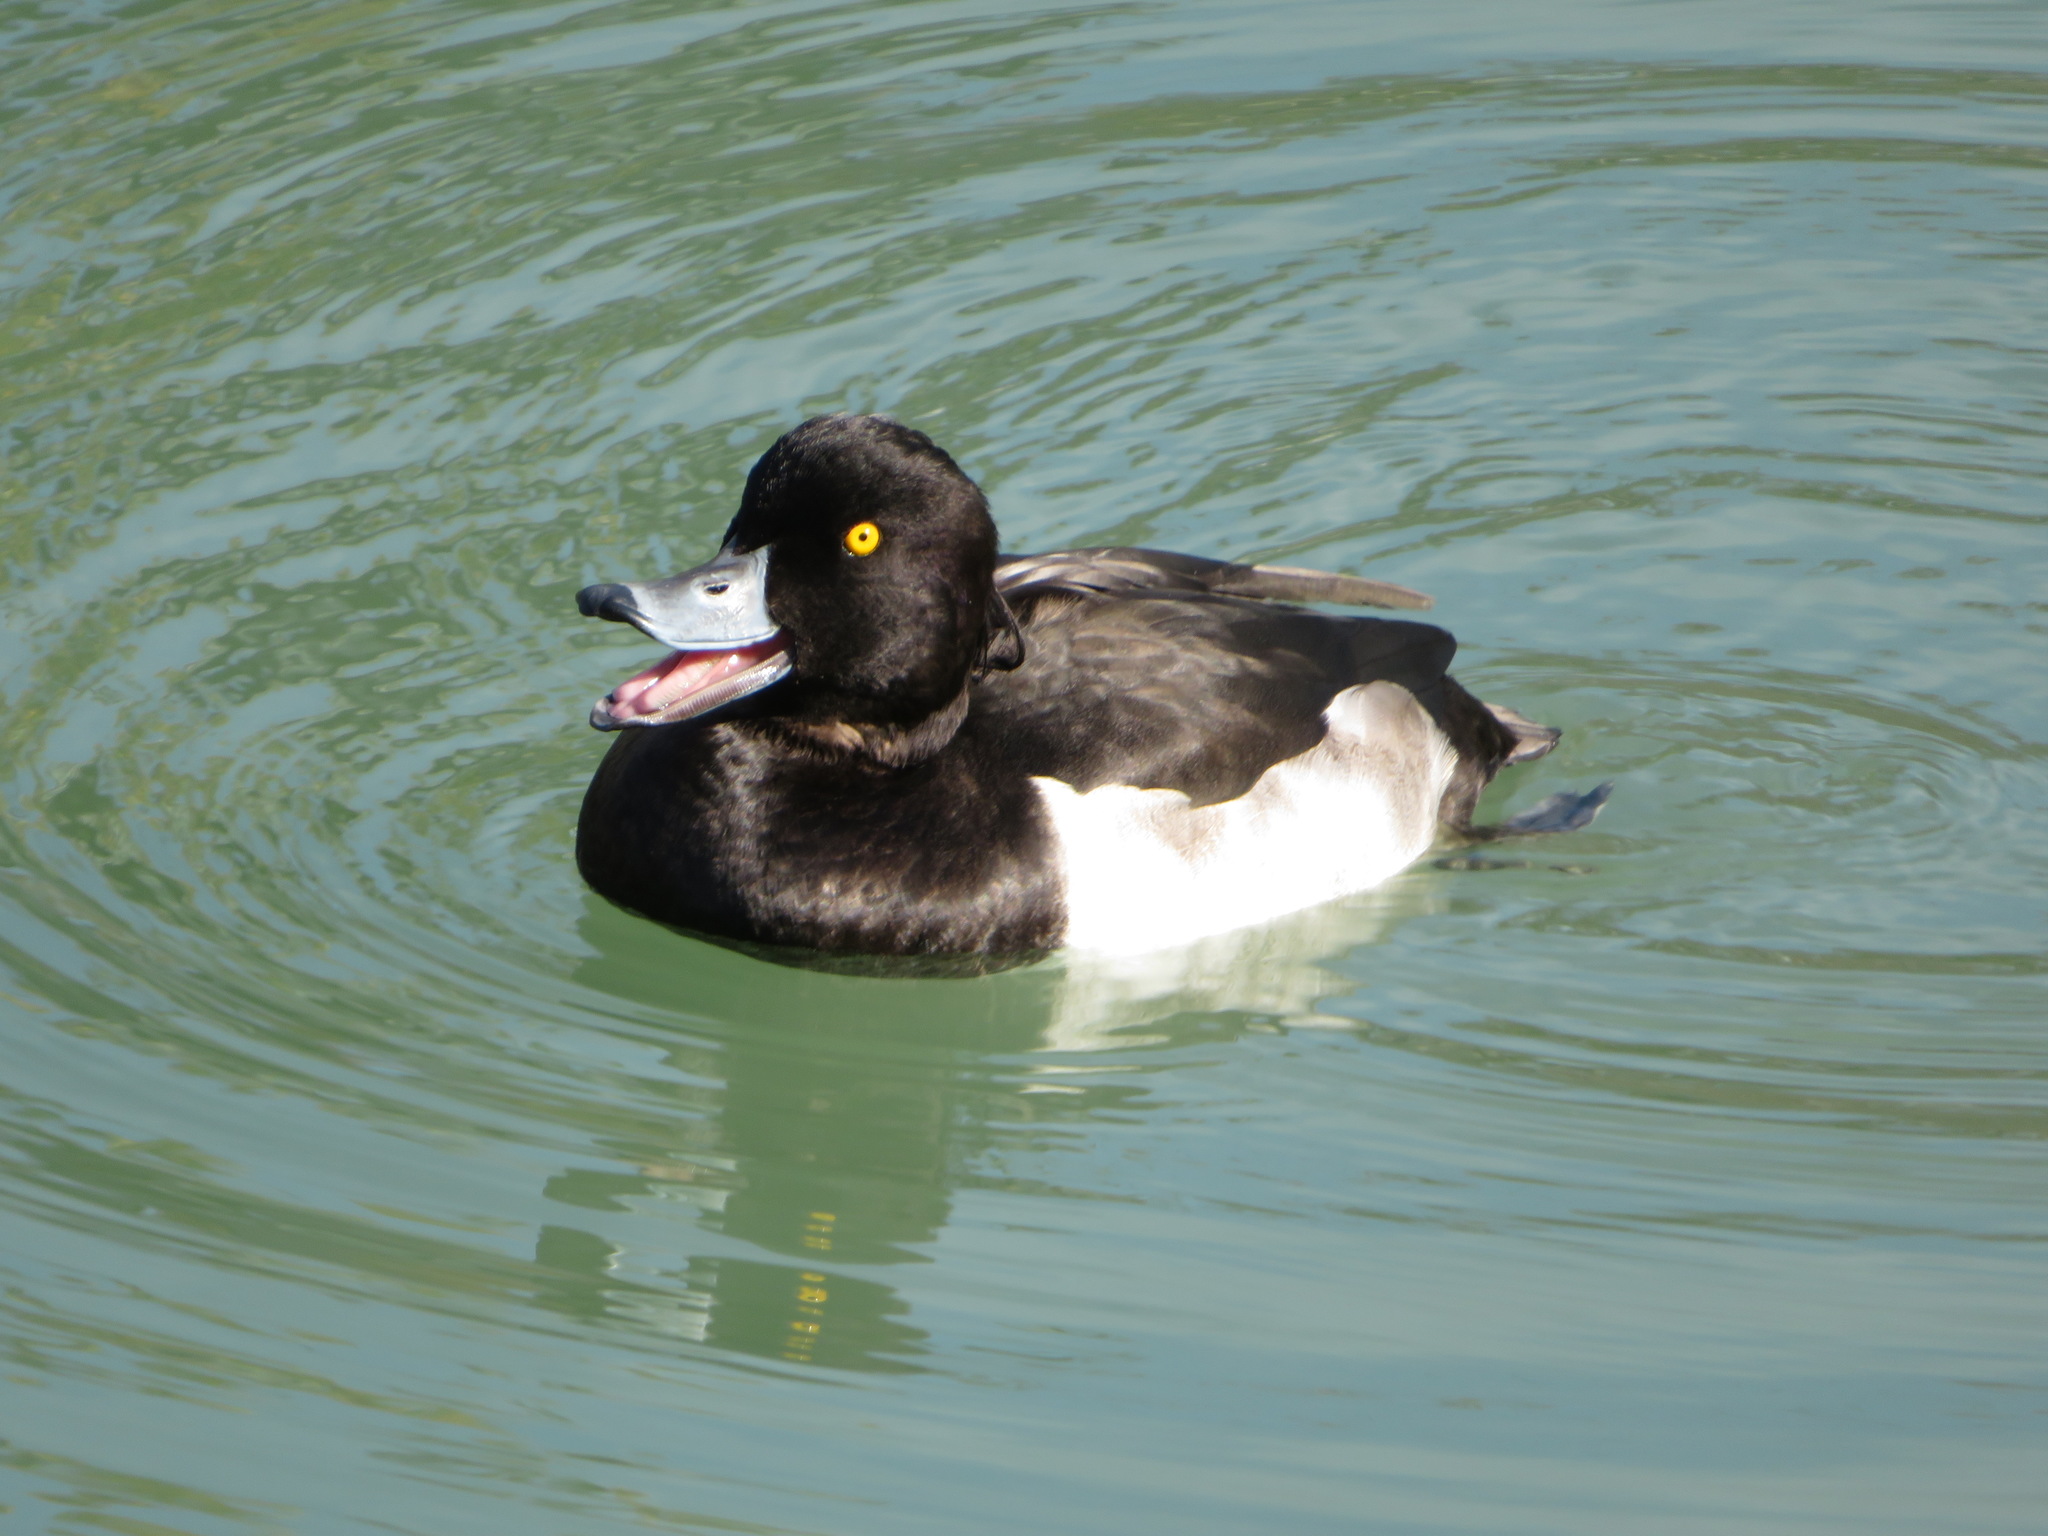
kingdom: Animalia
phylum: Chordata
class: Aves
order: Anseriformes
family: Anatidae
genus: Aythya
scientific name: Aythya fuligula
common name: Tufted duck
